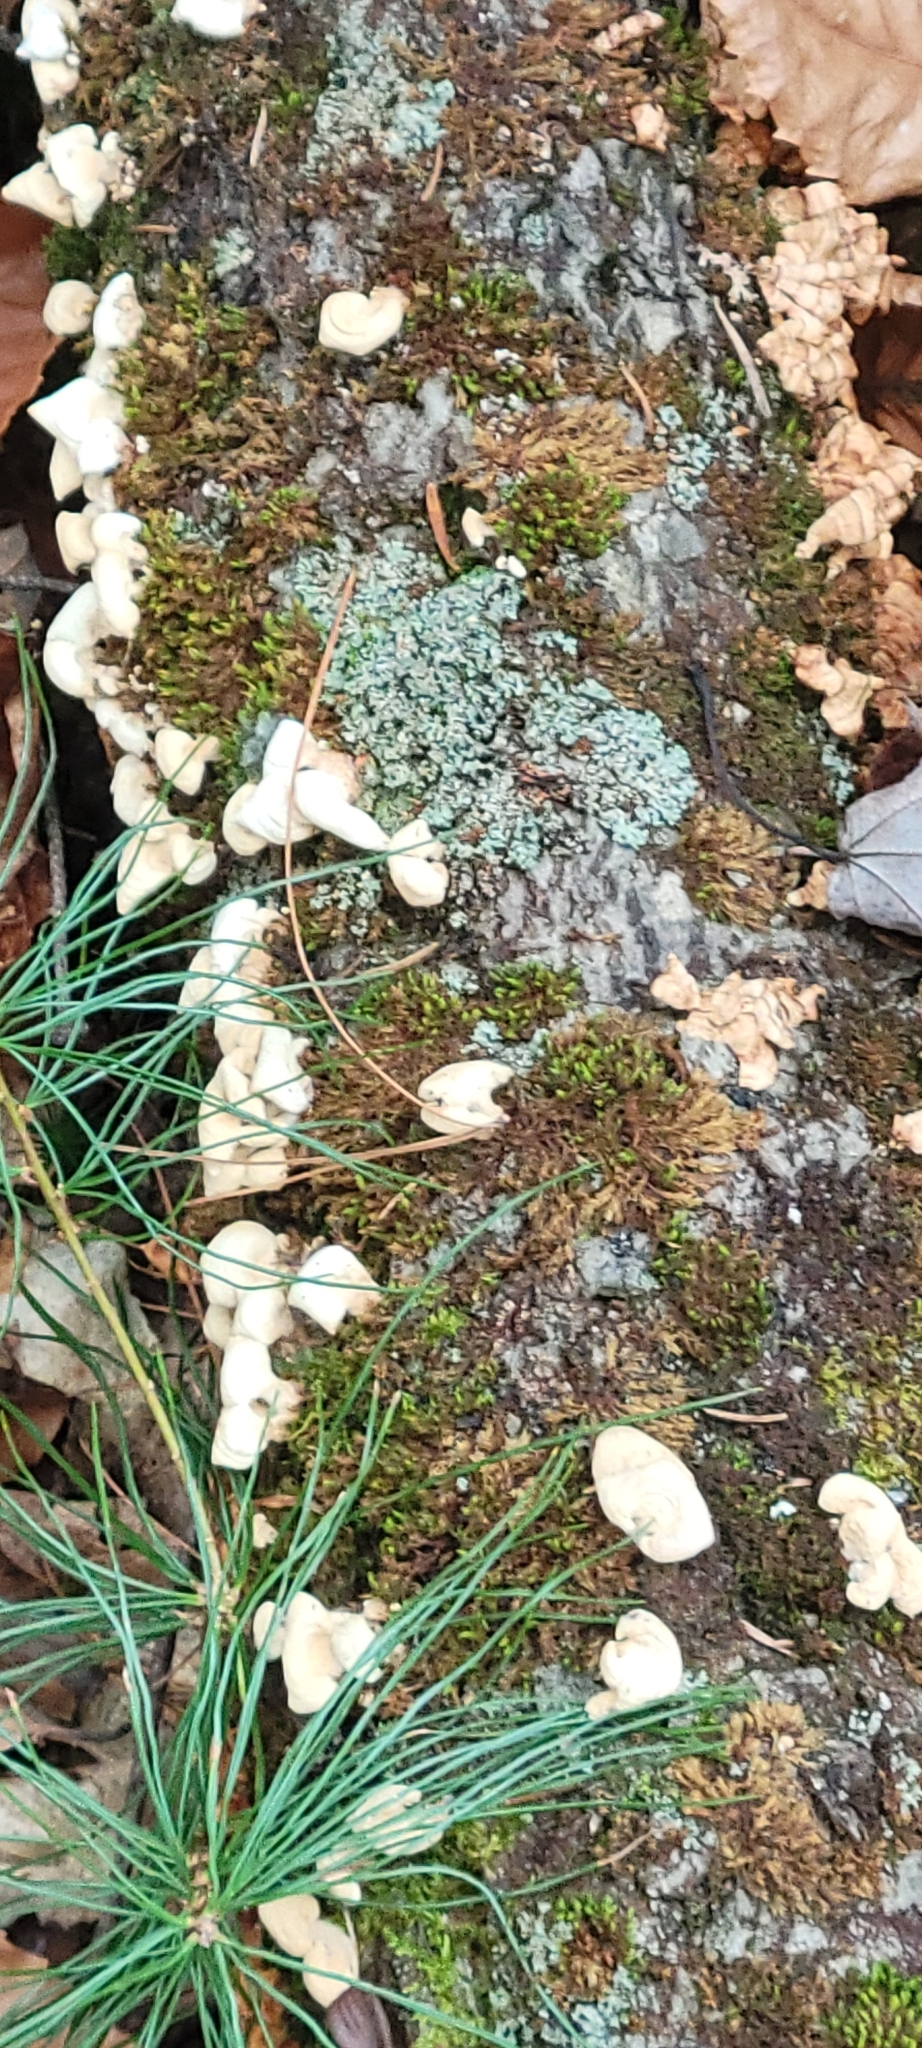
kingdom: Fungi
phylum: Basidiomycota
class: Agaricomycetes
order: Agaricales
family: Mycenaceae
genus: Panellus
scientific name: Panellus stipticus
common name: Bitter oysterling
